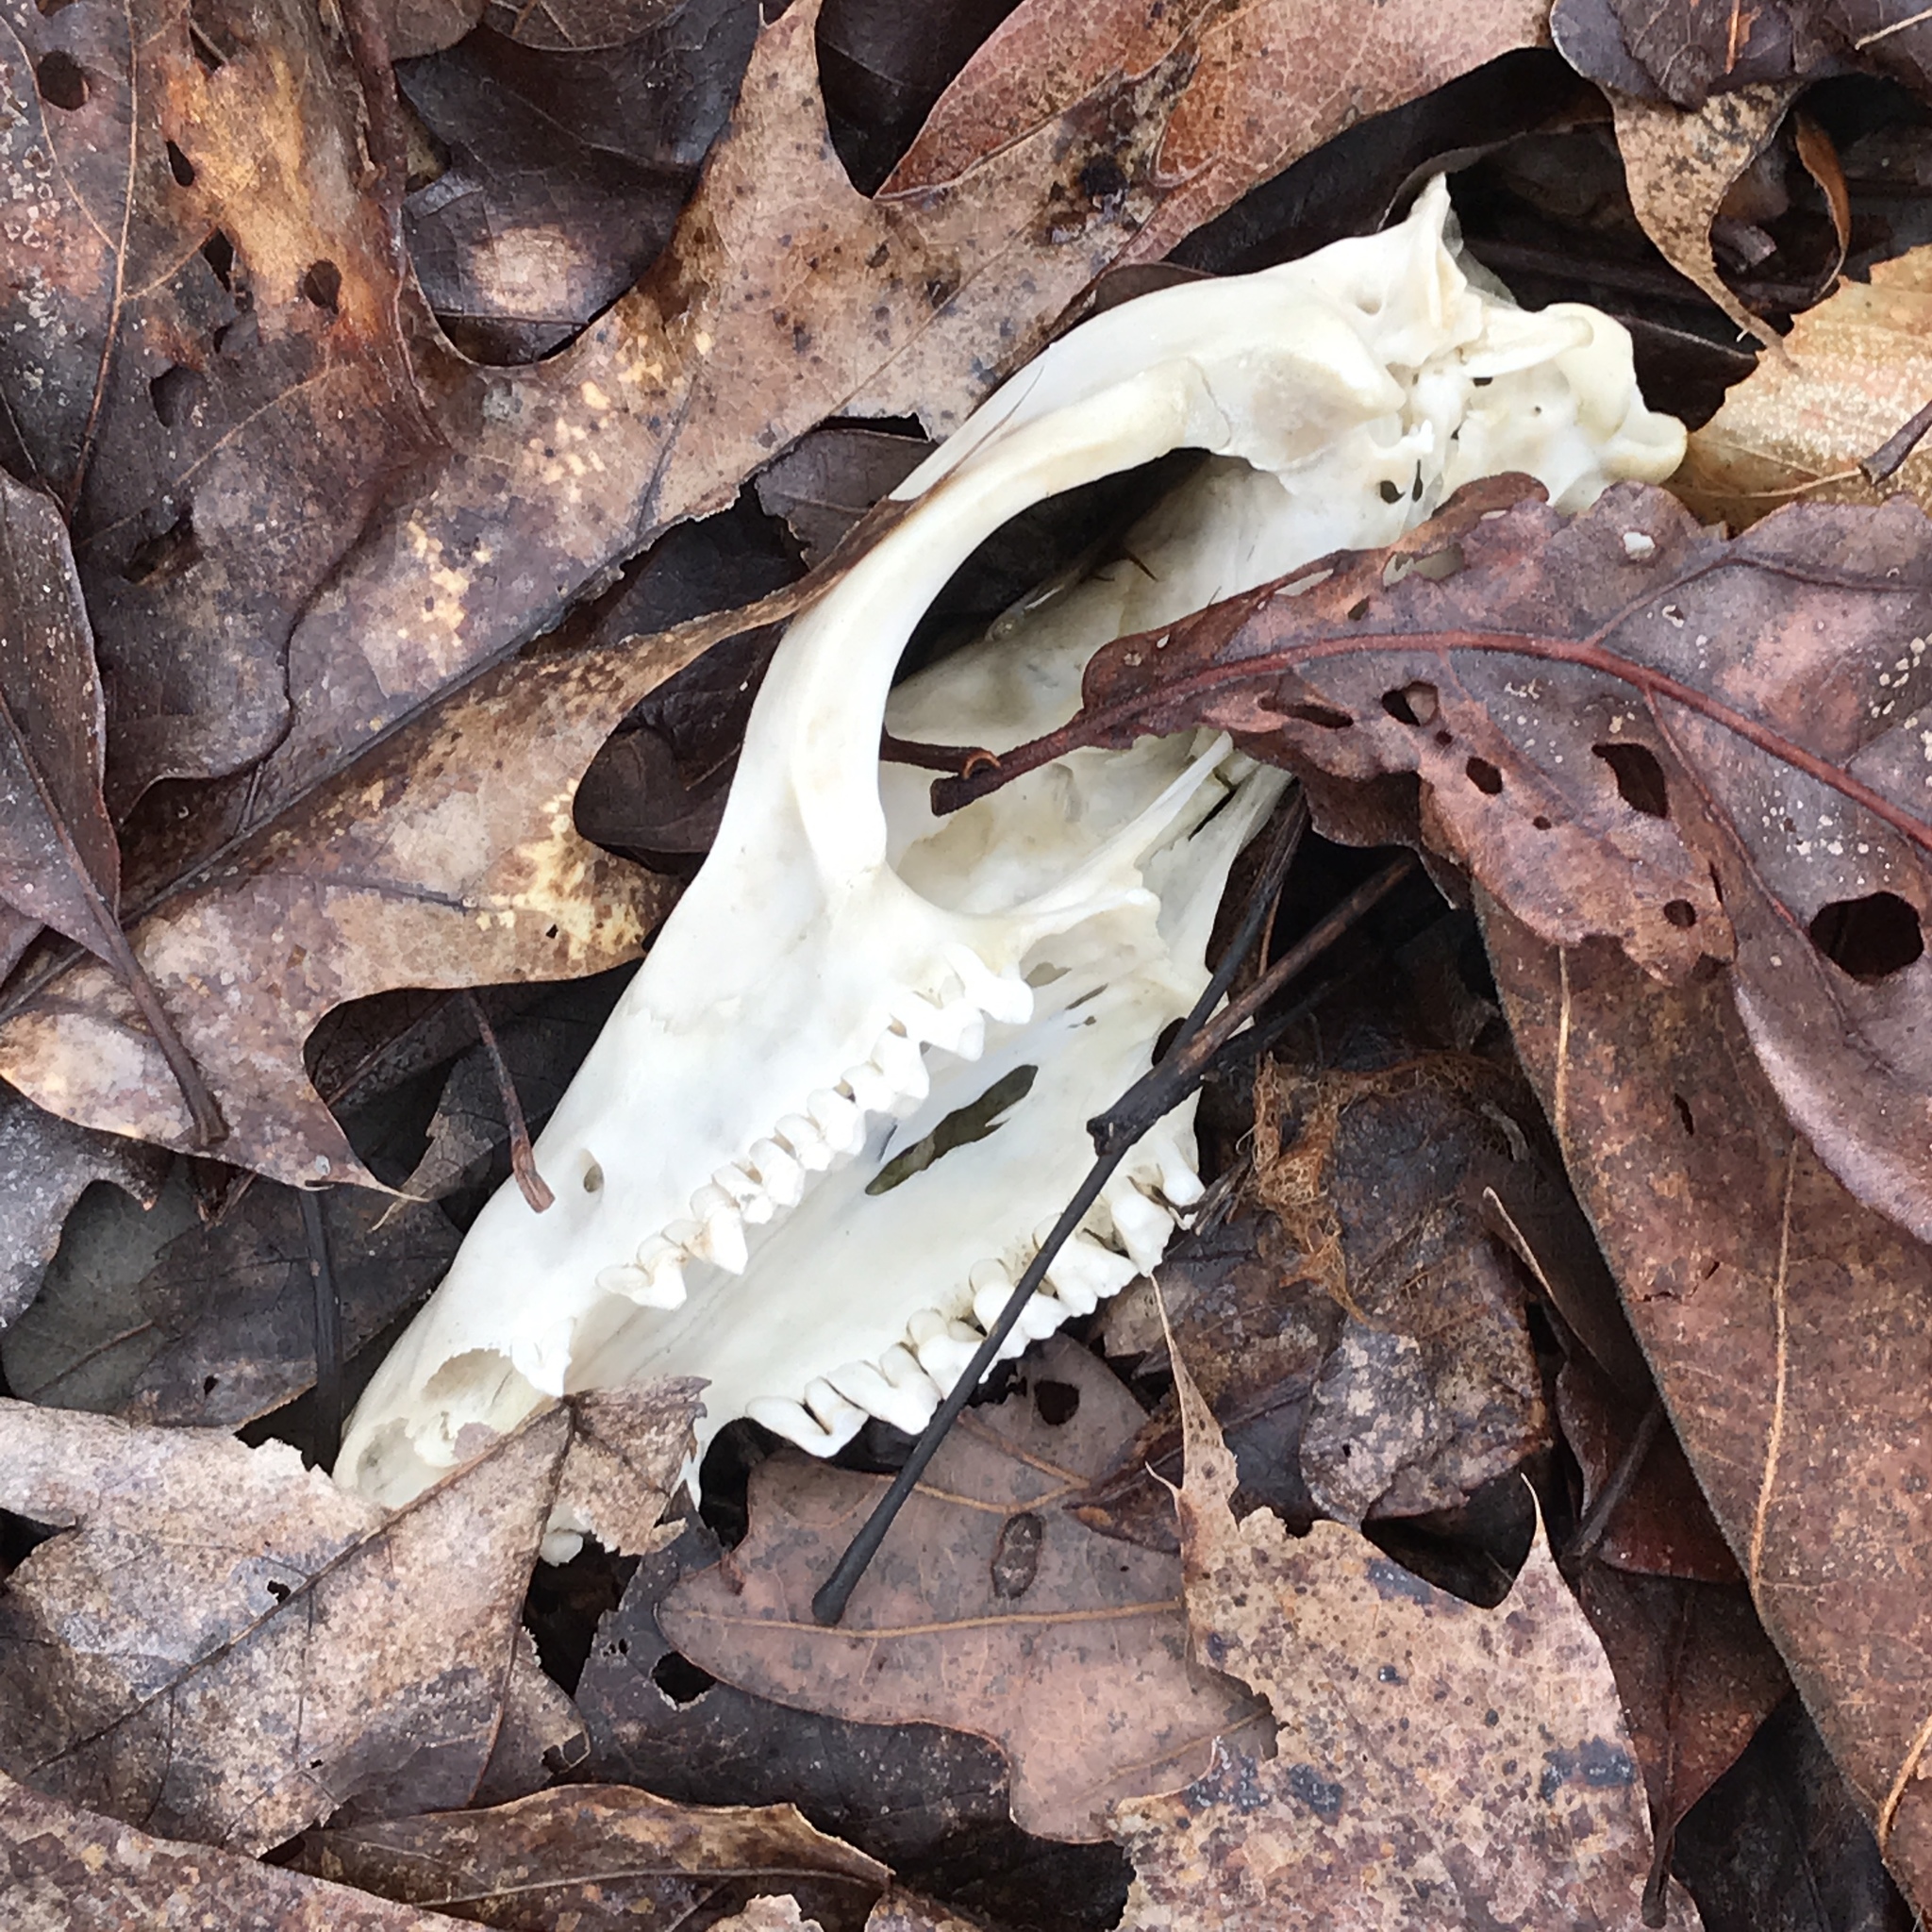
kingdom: Animalia
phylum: Chordata
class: Mammalia
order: Didelphimorphia
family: Didelphidae
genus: Didelphis
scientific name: Didelphis virginiana
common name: Virginia opossum
